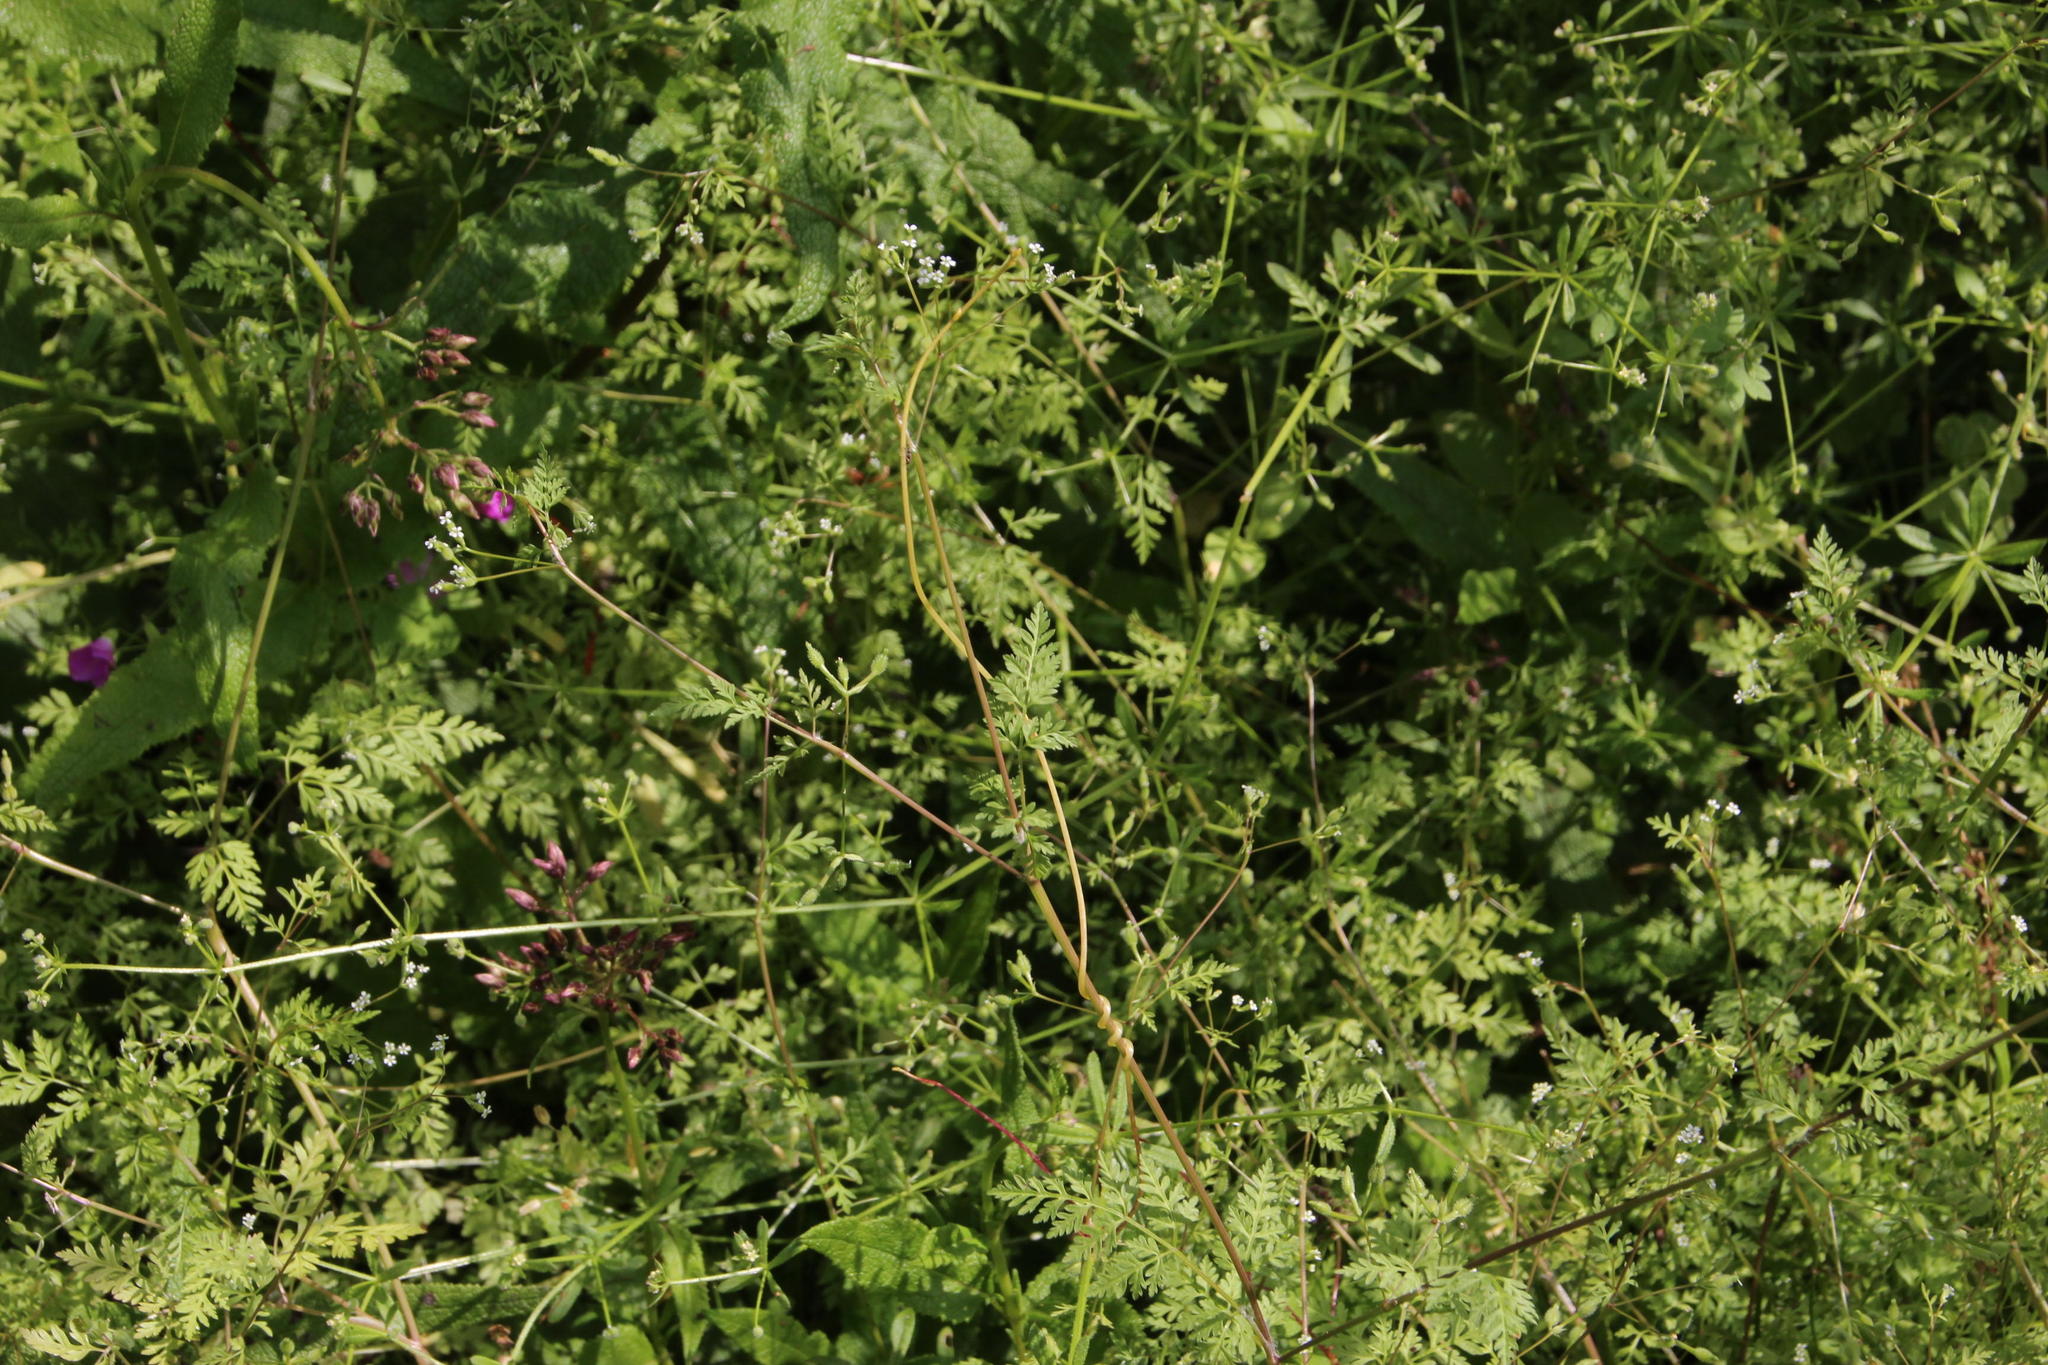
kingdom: Plantae
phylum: Tracheophyta
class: Magnoliopsida
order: Apiales
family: Apiaceae
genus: Anthriscus
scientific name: Anthriscus caucalis
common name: Bur chervil
